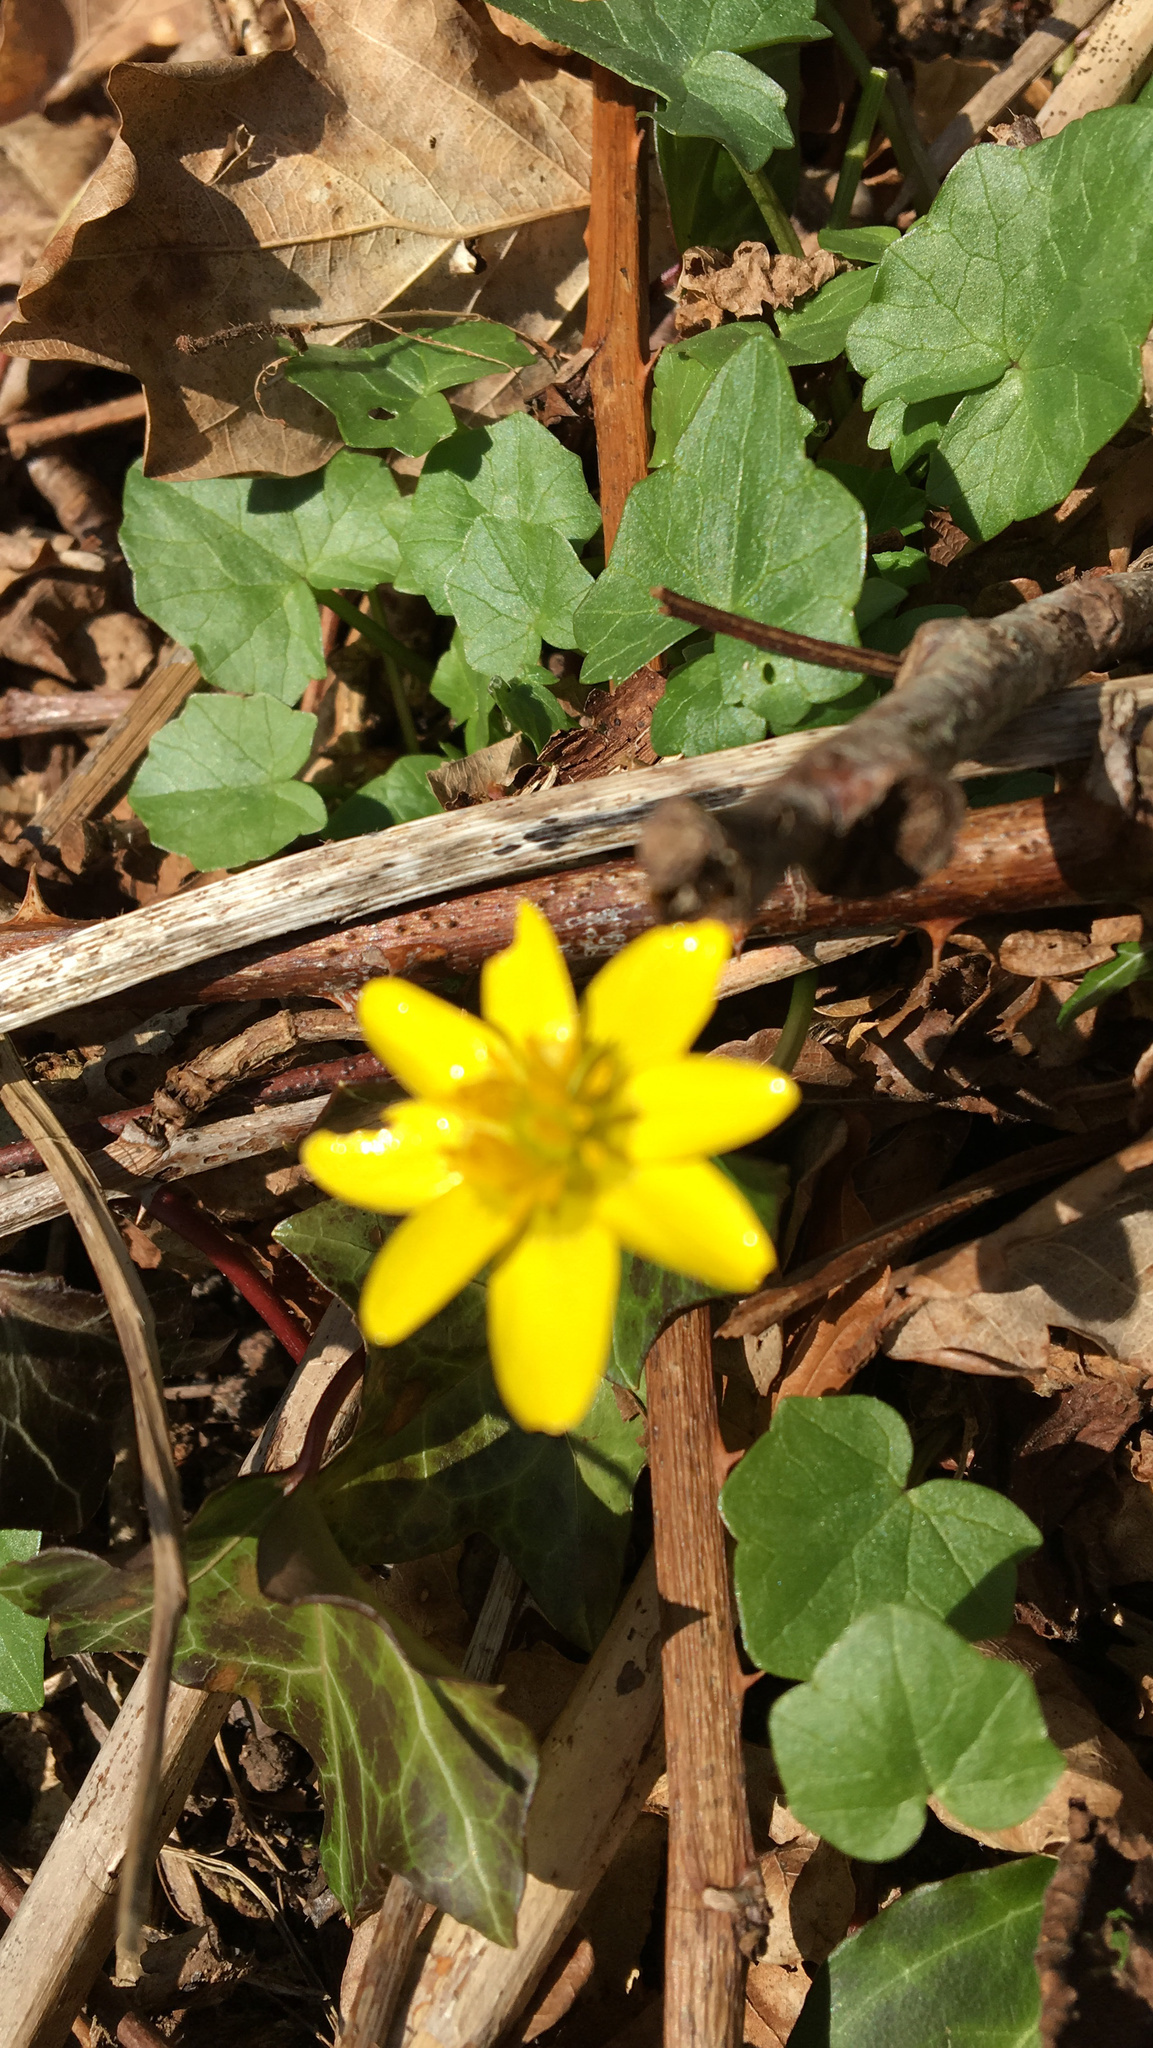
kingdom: Plantae
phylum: Tracheophyta
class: Magnoliopsida
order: Ranunculales
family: Ranunculaceae
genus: Ficaria
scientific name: Ficaria verna
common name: Lesser celandine
